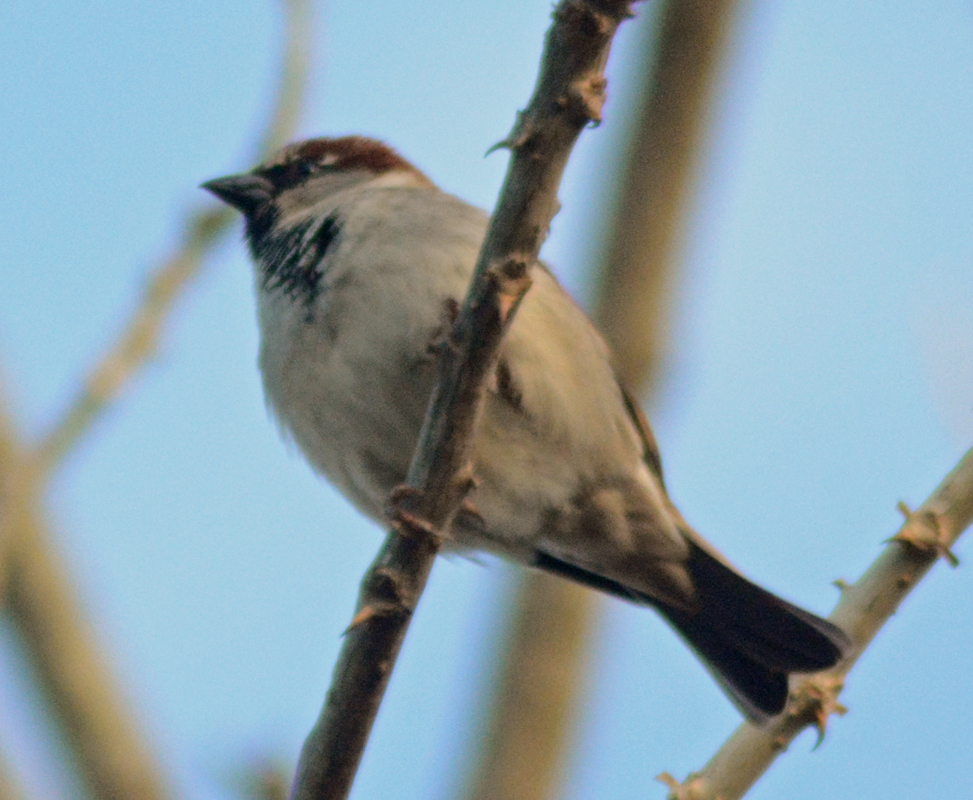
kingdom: Animalia
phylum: Chordata
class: Aves
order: Passeriformes
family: Passeridae
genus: Passer
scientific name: Passer domesticus
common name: House sparrow
